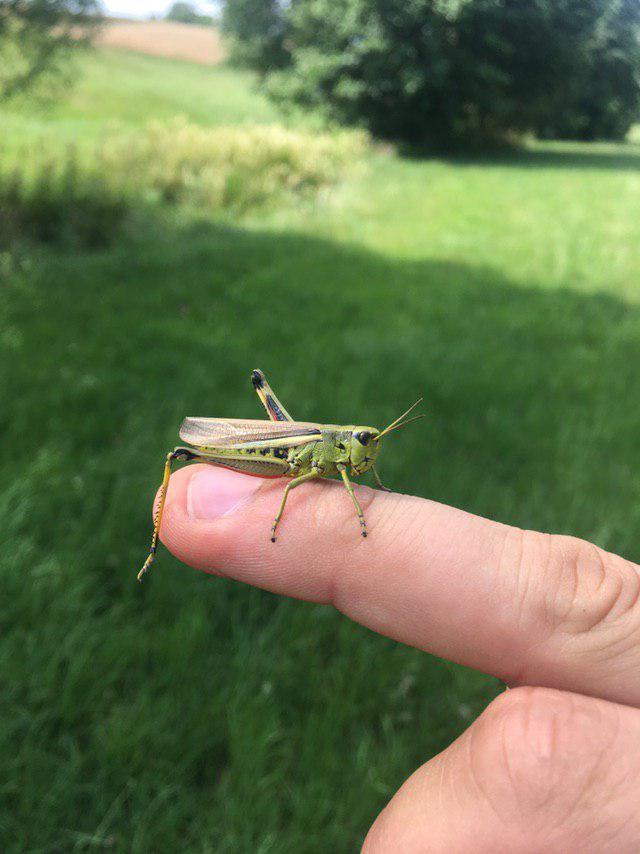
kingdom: Animalia
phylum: Arthropoda
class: Insecta
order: Orthoptera
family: Acrididae
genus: Stethophyma
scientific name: Stethophyma grossum
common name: Large marsh grasshopper
